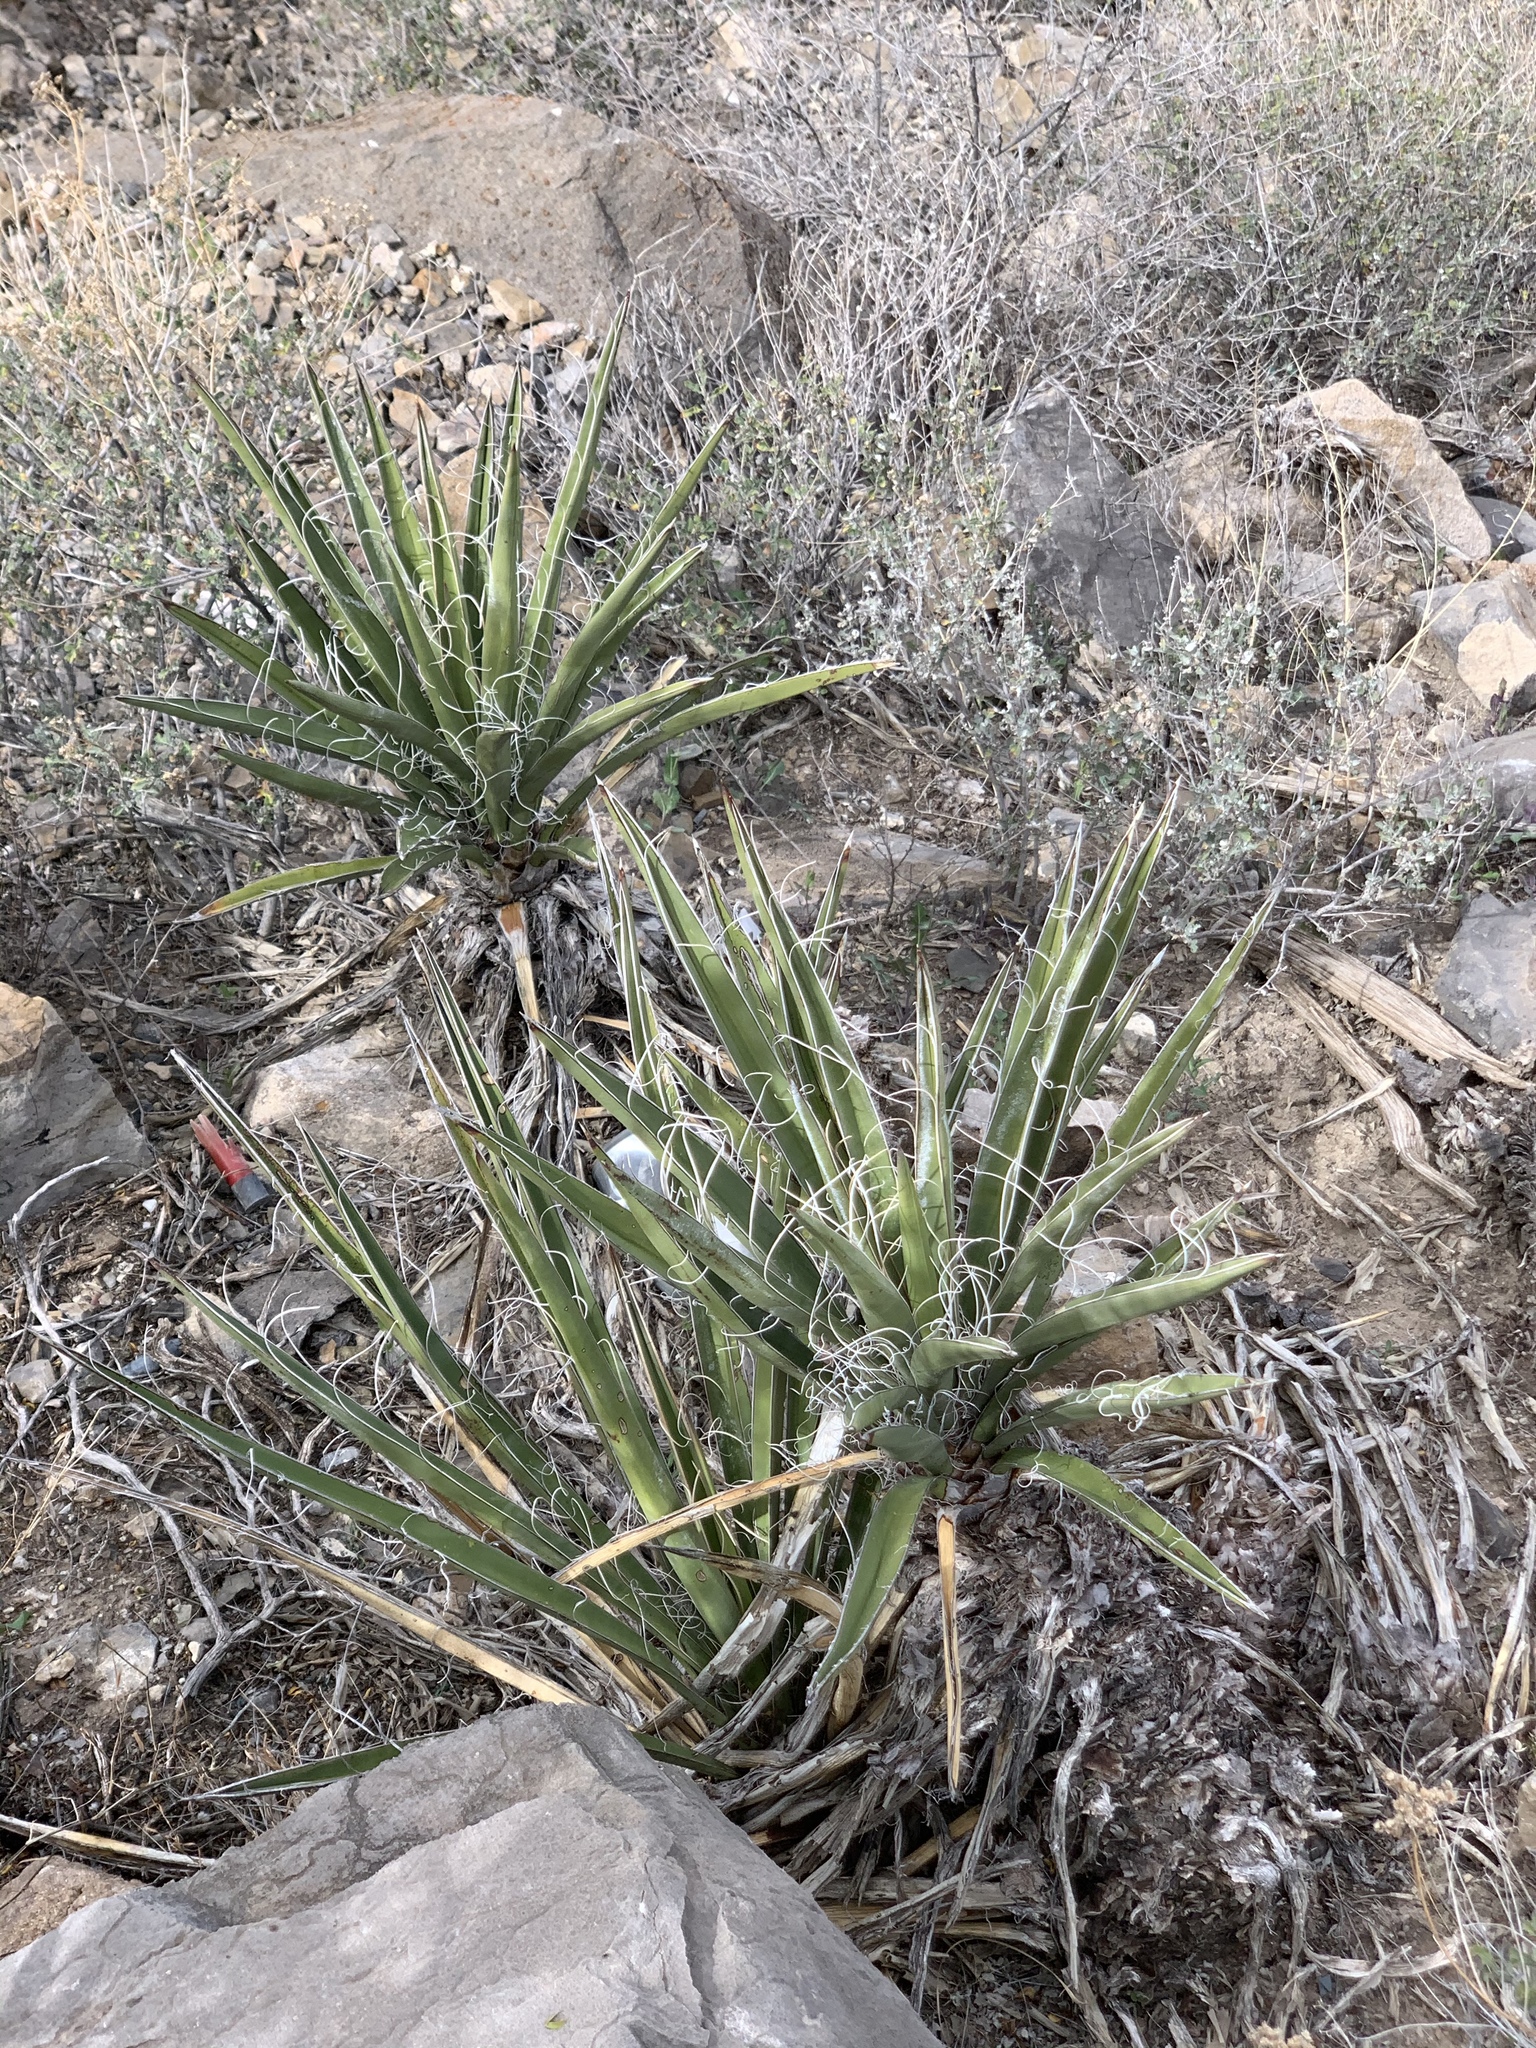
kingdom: Plantae
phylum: Tracheophyta
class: Liliopsida
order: Asparagales
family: Asparagaceae
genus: Yucca
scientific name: Yucca baccata
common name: Banana yucca
